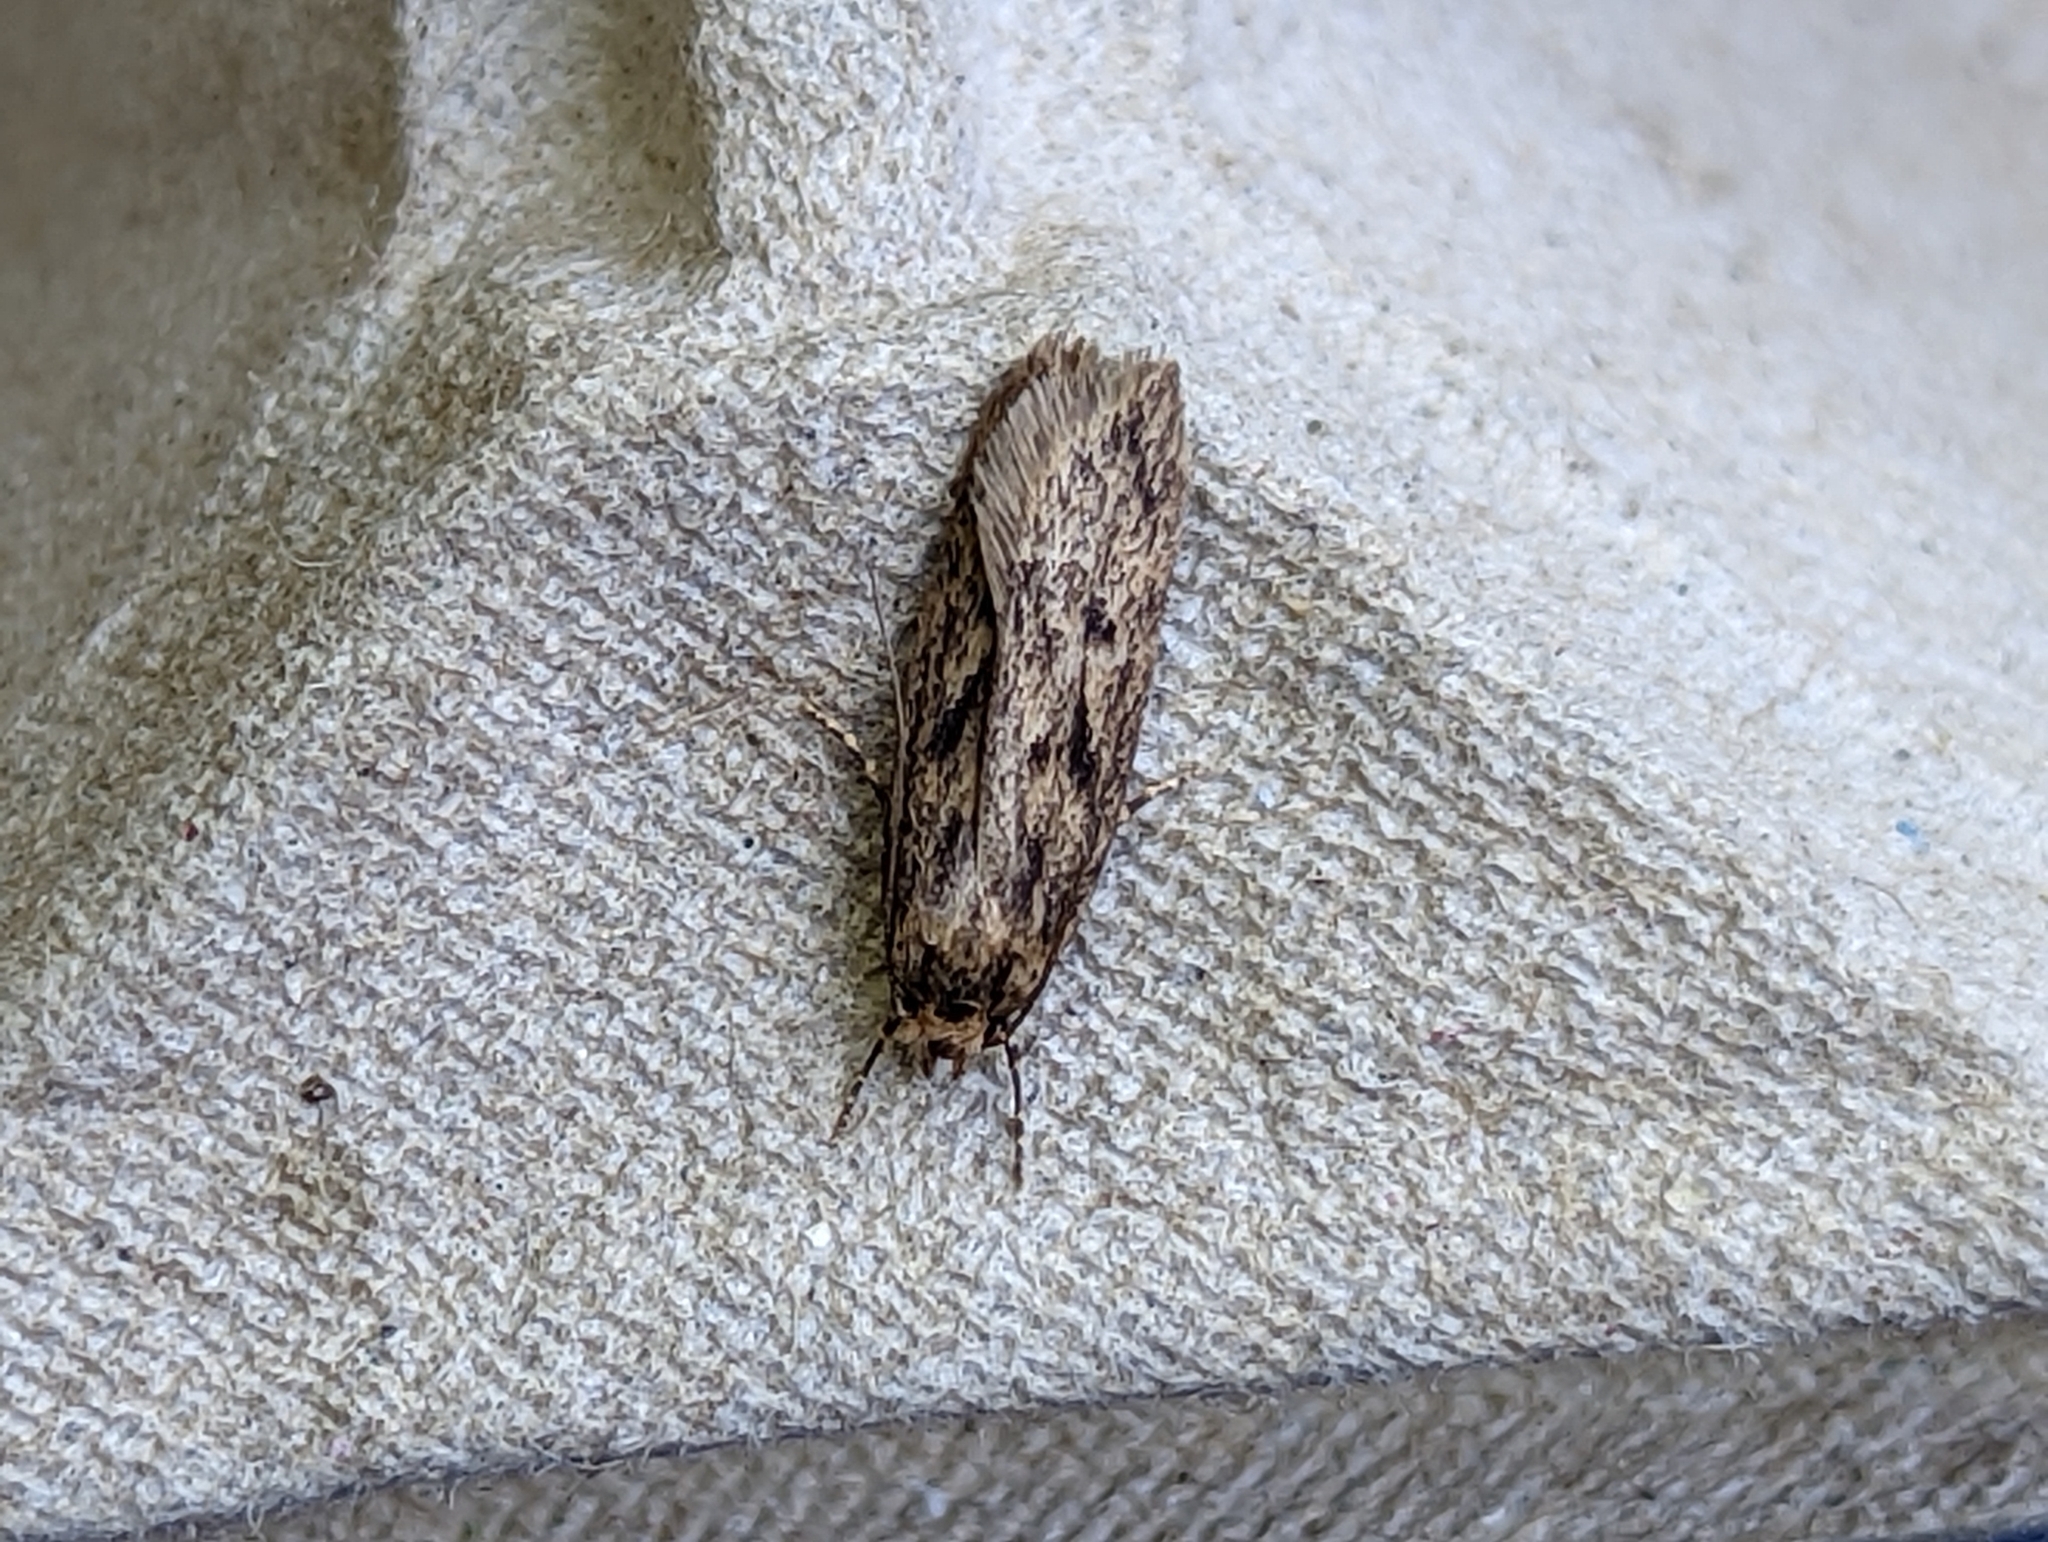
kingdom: Animalia
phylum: Arthropoda
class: Insecta
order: Lepidoptera
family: Oecophoridae
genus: Hofmannophila
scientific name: Hofmannophila pseudospretella
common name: Brown house moth
